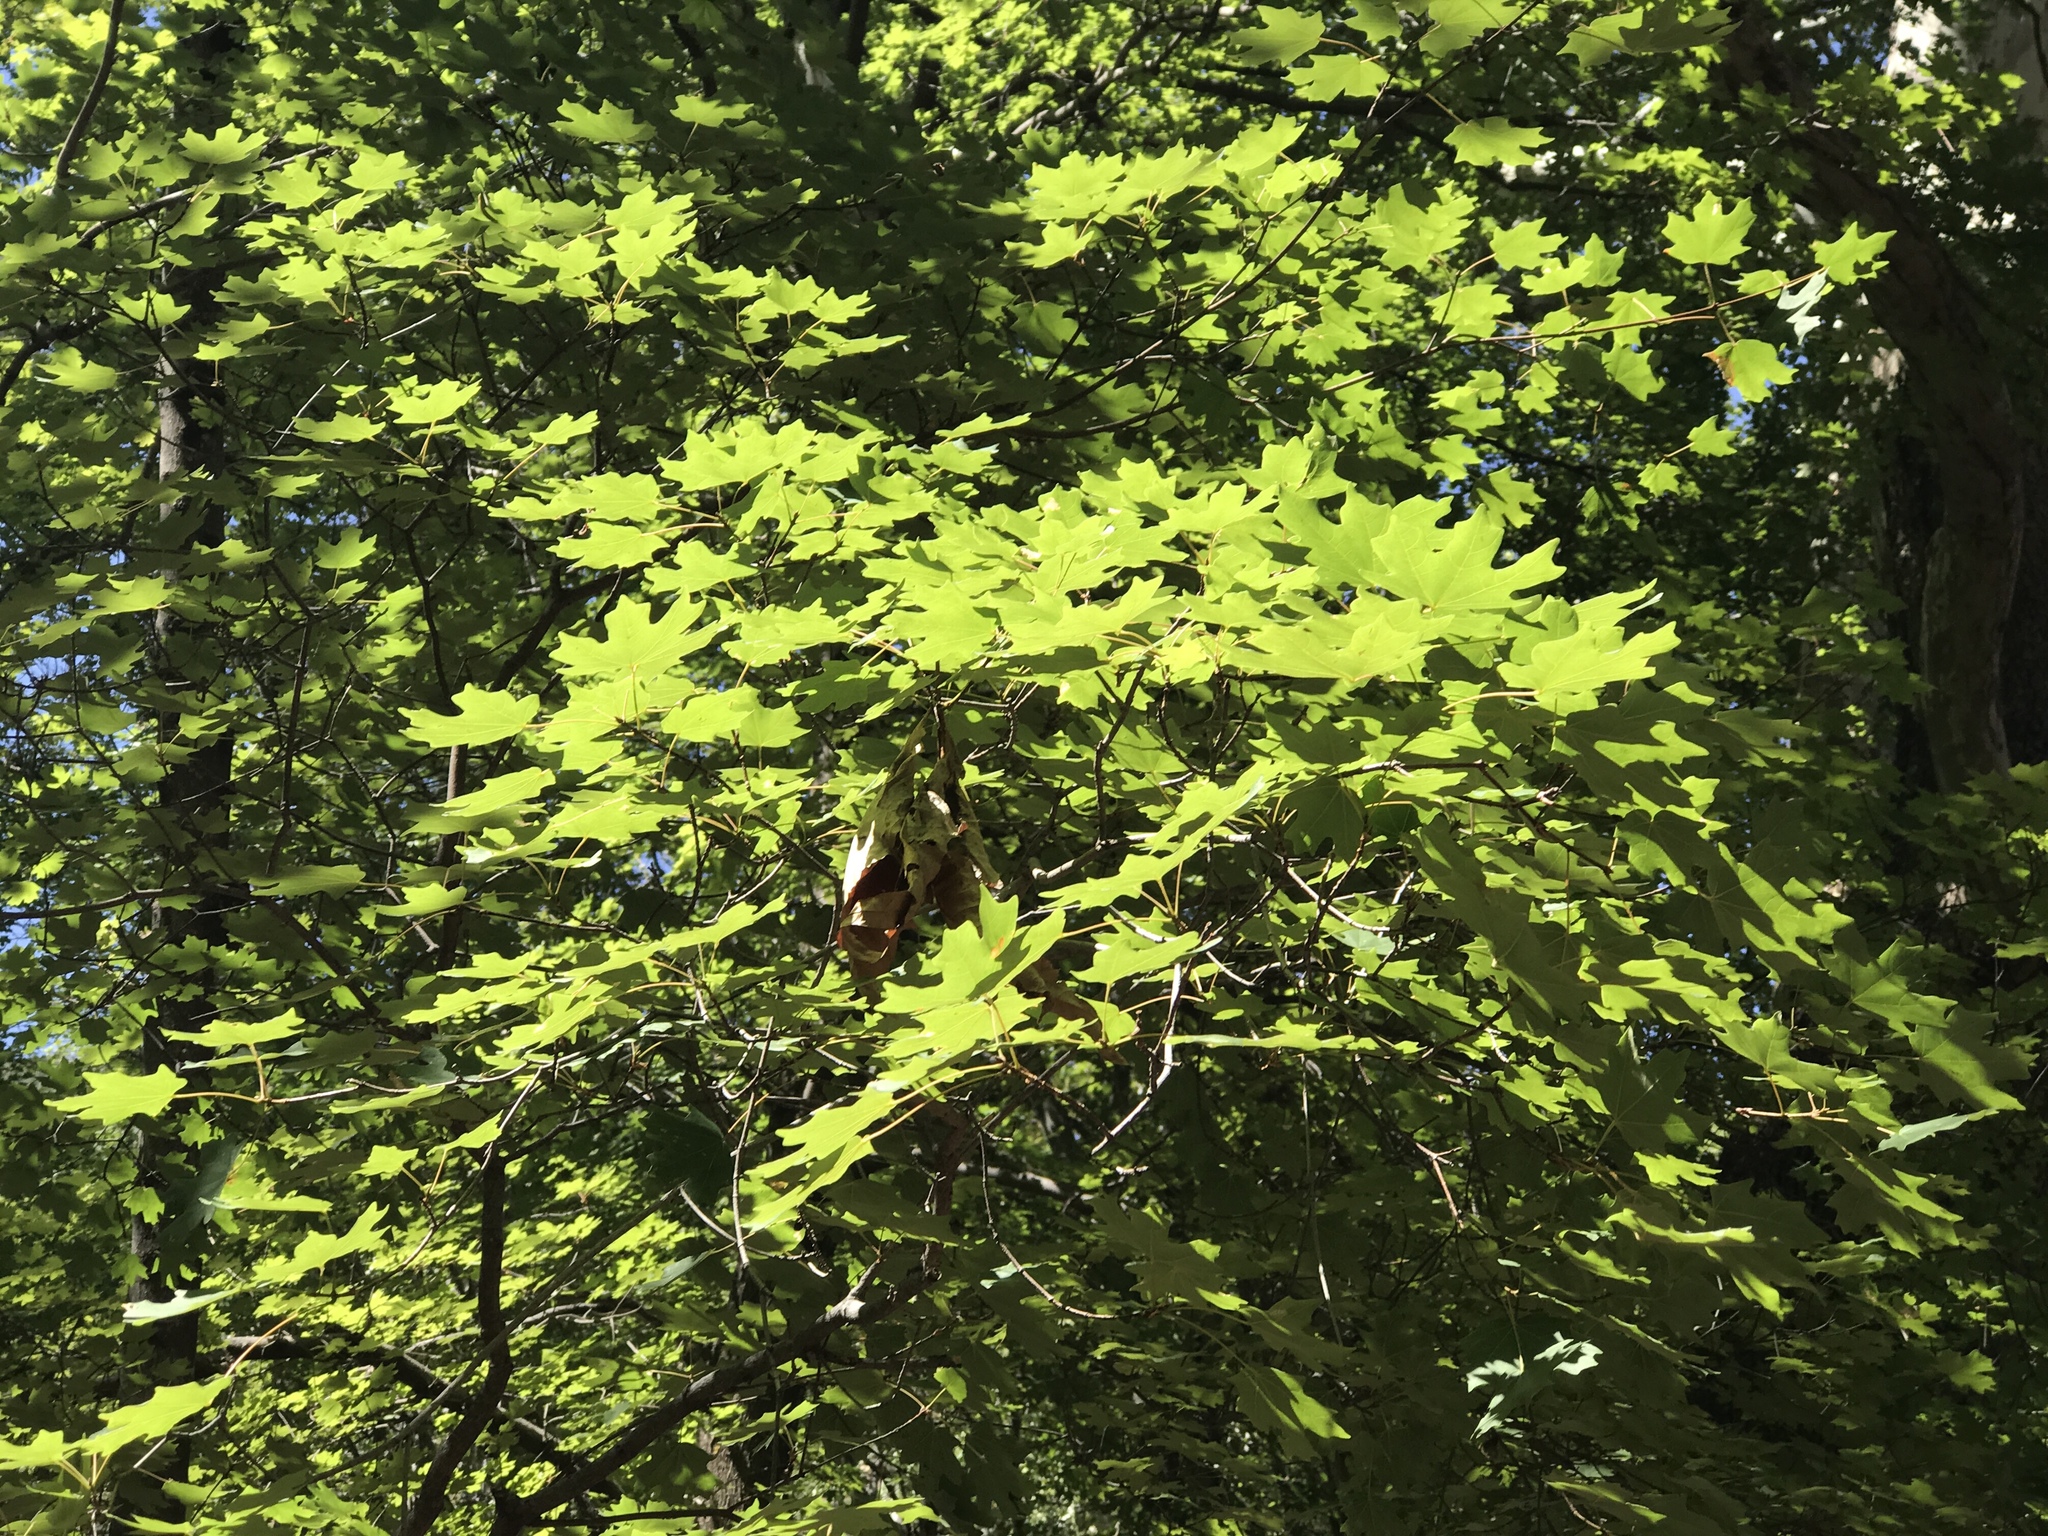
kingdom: Plantae
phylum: Tracheophyta
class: Magnoliopsida
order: Sapindales
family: Sapindaceae
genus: Acer
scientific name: Acer grandidentatum
